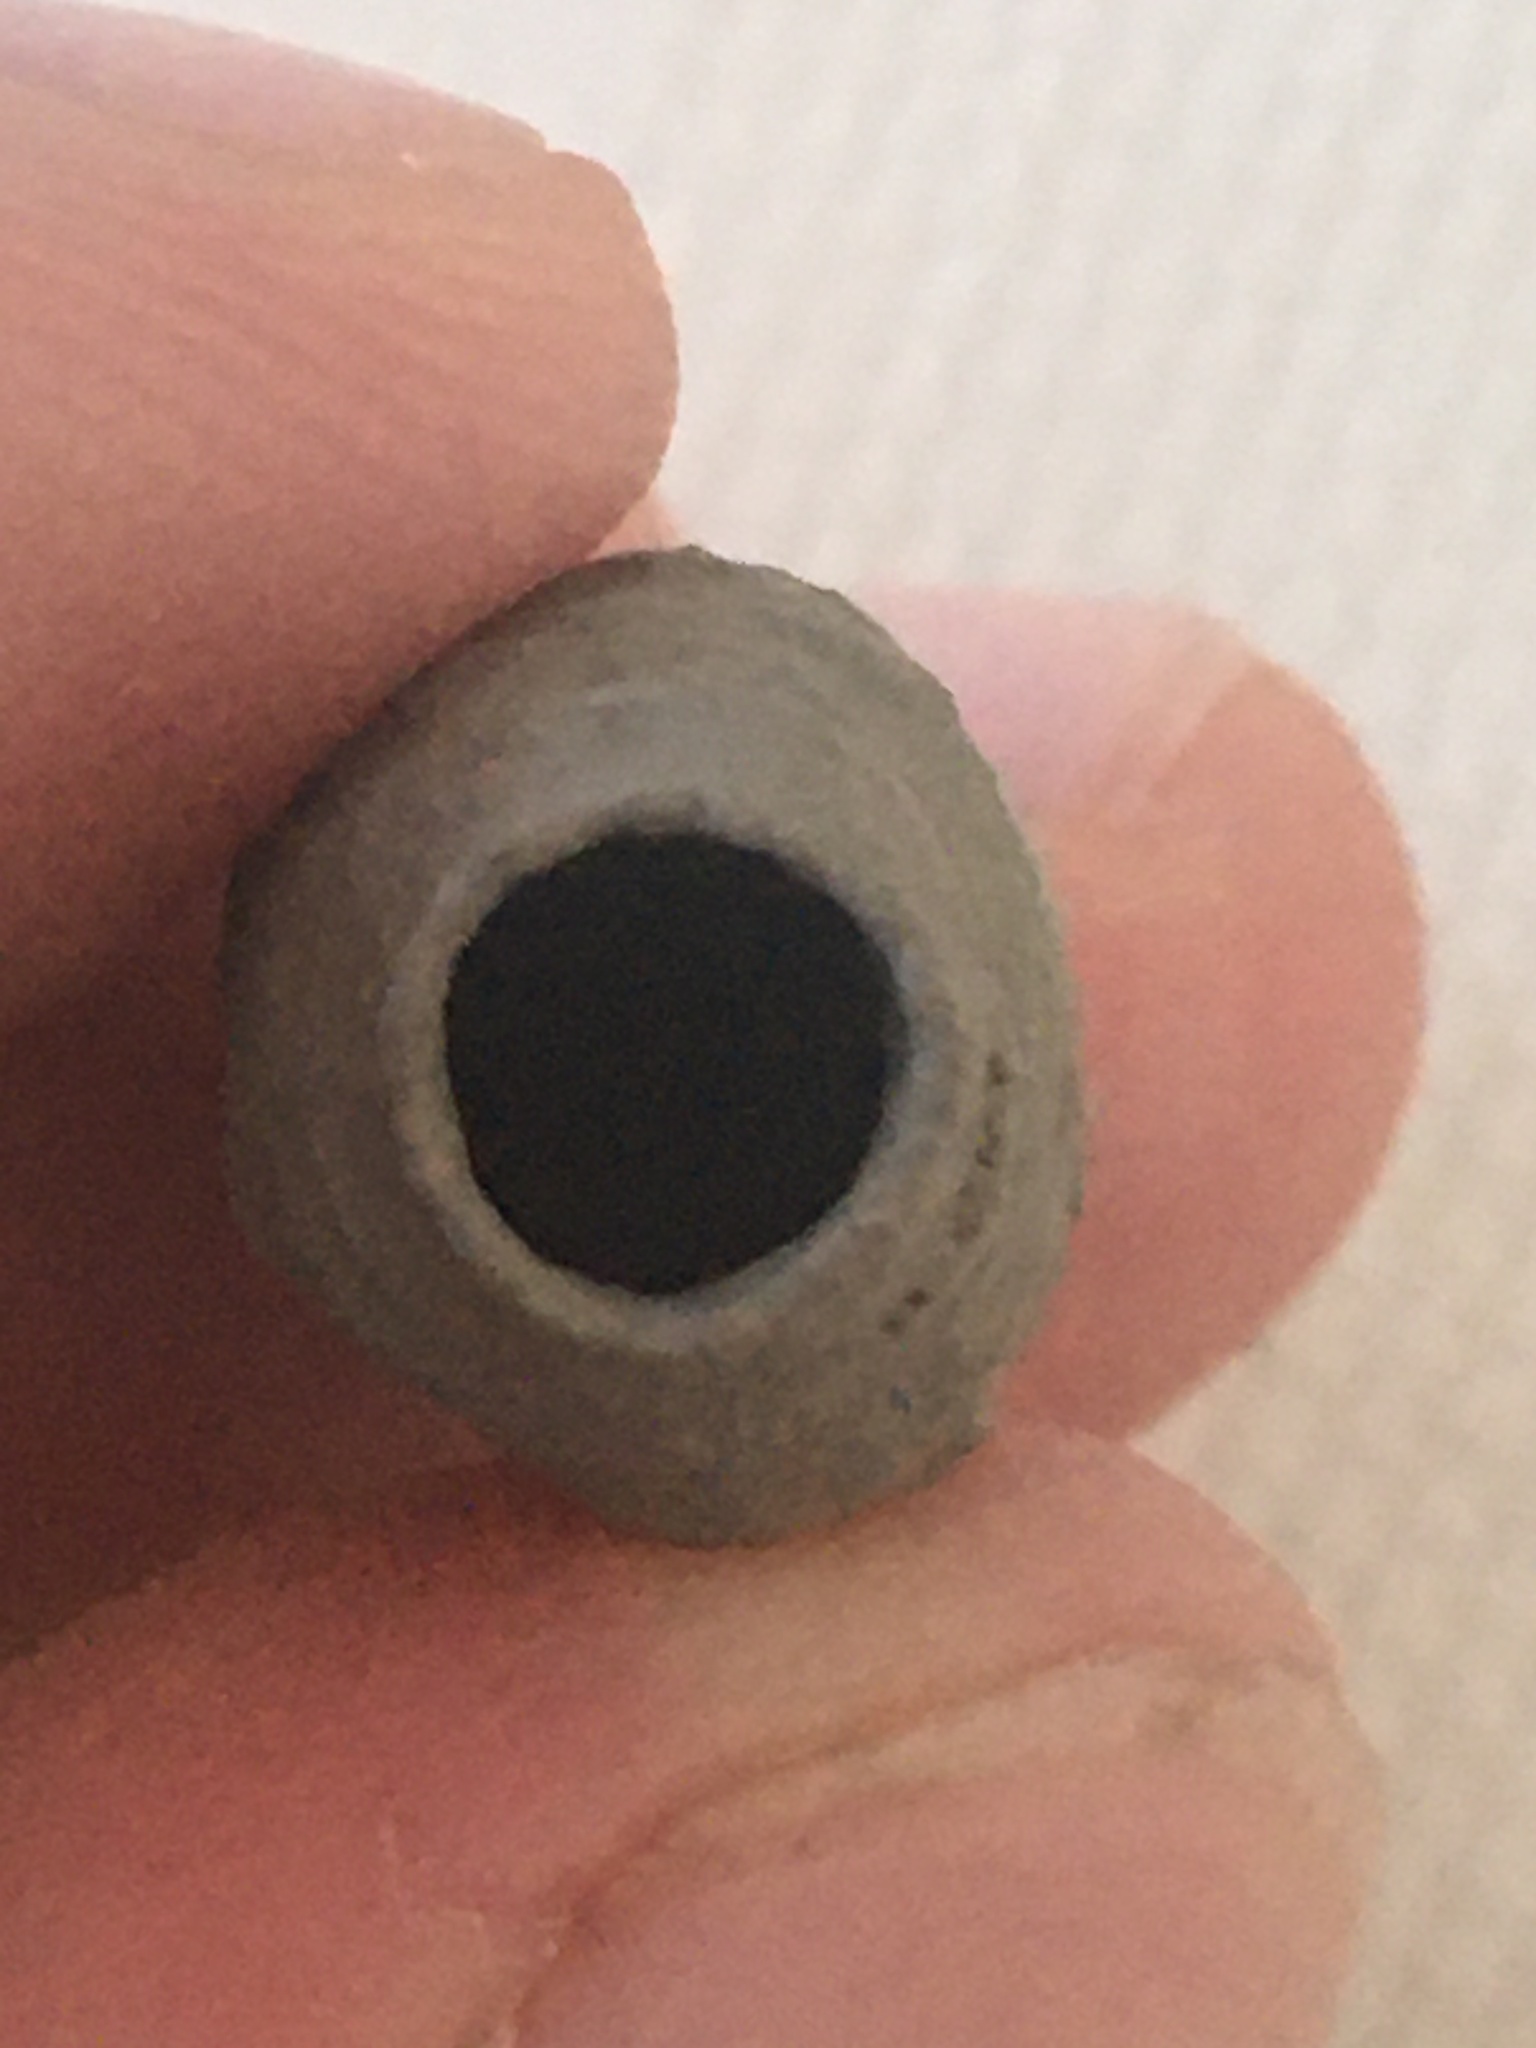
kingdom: Animalia
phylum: Arthropoda
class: Insecta
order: Hymenoptera
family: Sphecidae
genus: Sceliphron
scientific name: Sceliphron curvatum
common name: Pèlopèe
